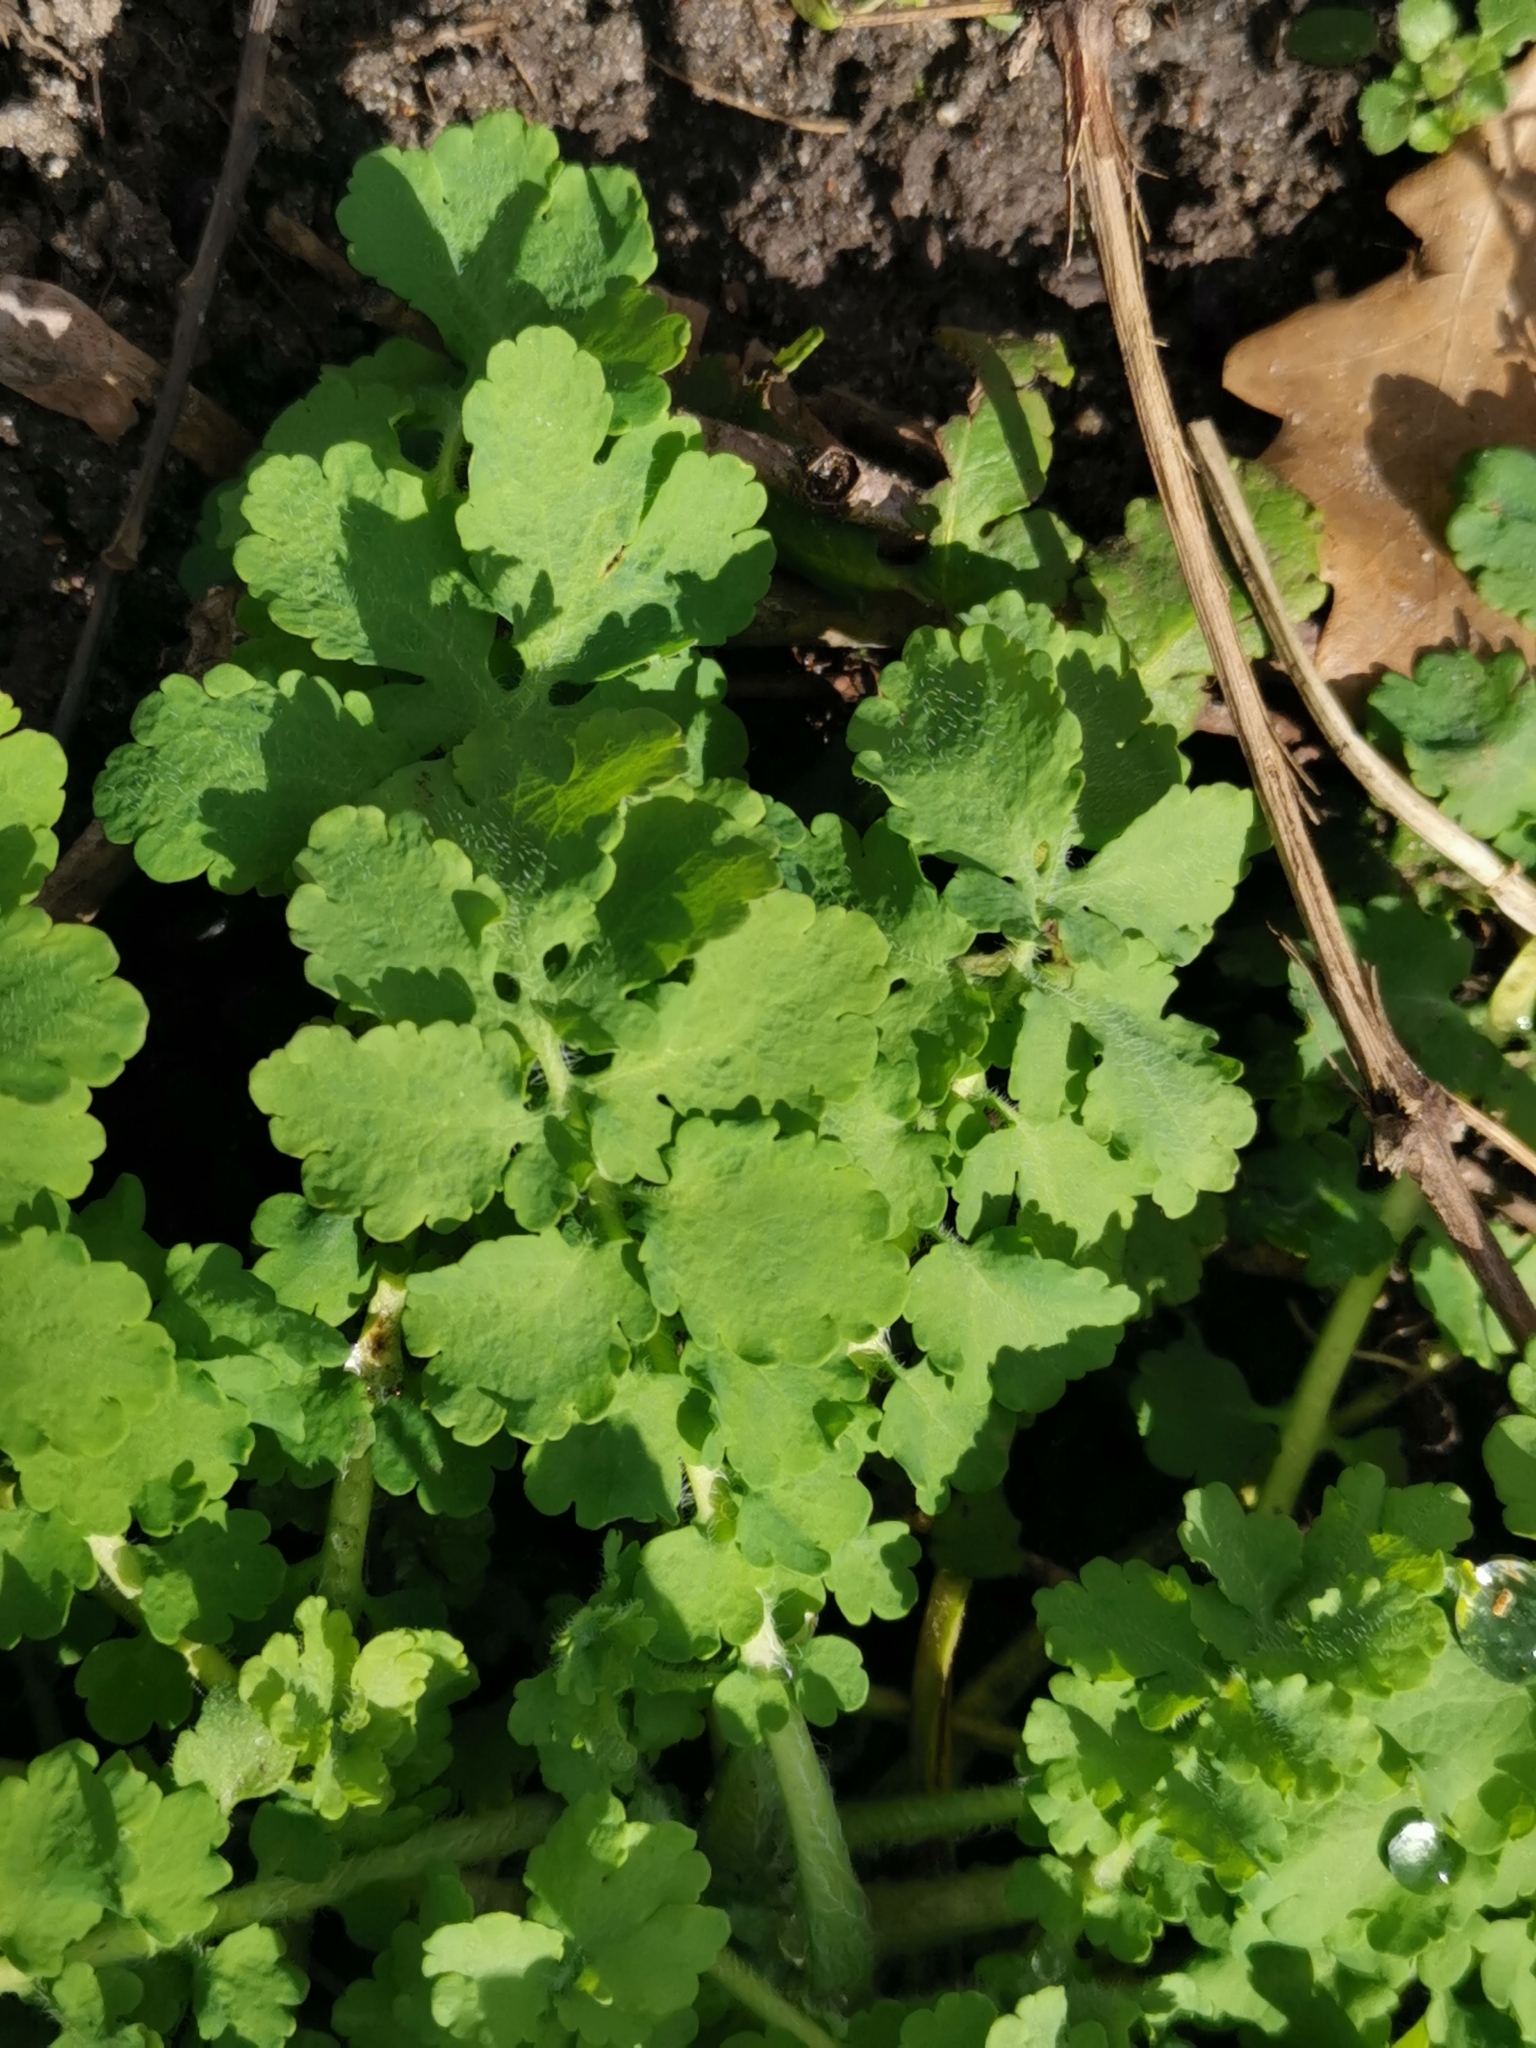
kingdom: Plantae
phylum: Tracheophyta
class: Magnoliopsida
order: Ranunculales
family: Papaveraceae
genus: Chelidonium
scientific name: Chelidonium majus
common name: Greater celandine
